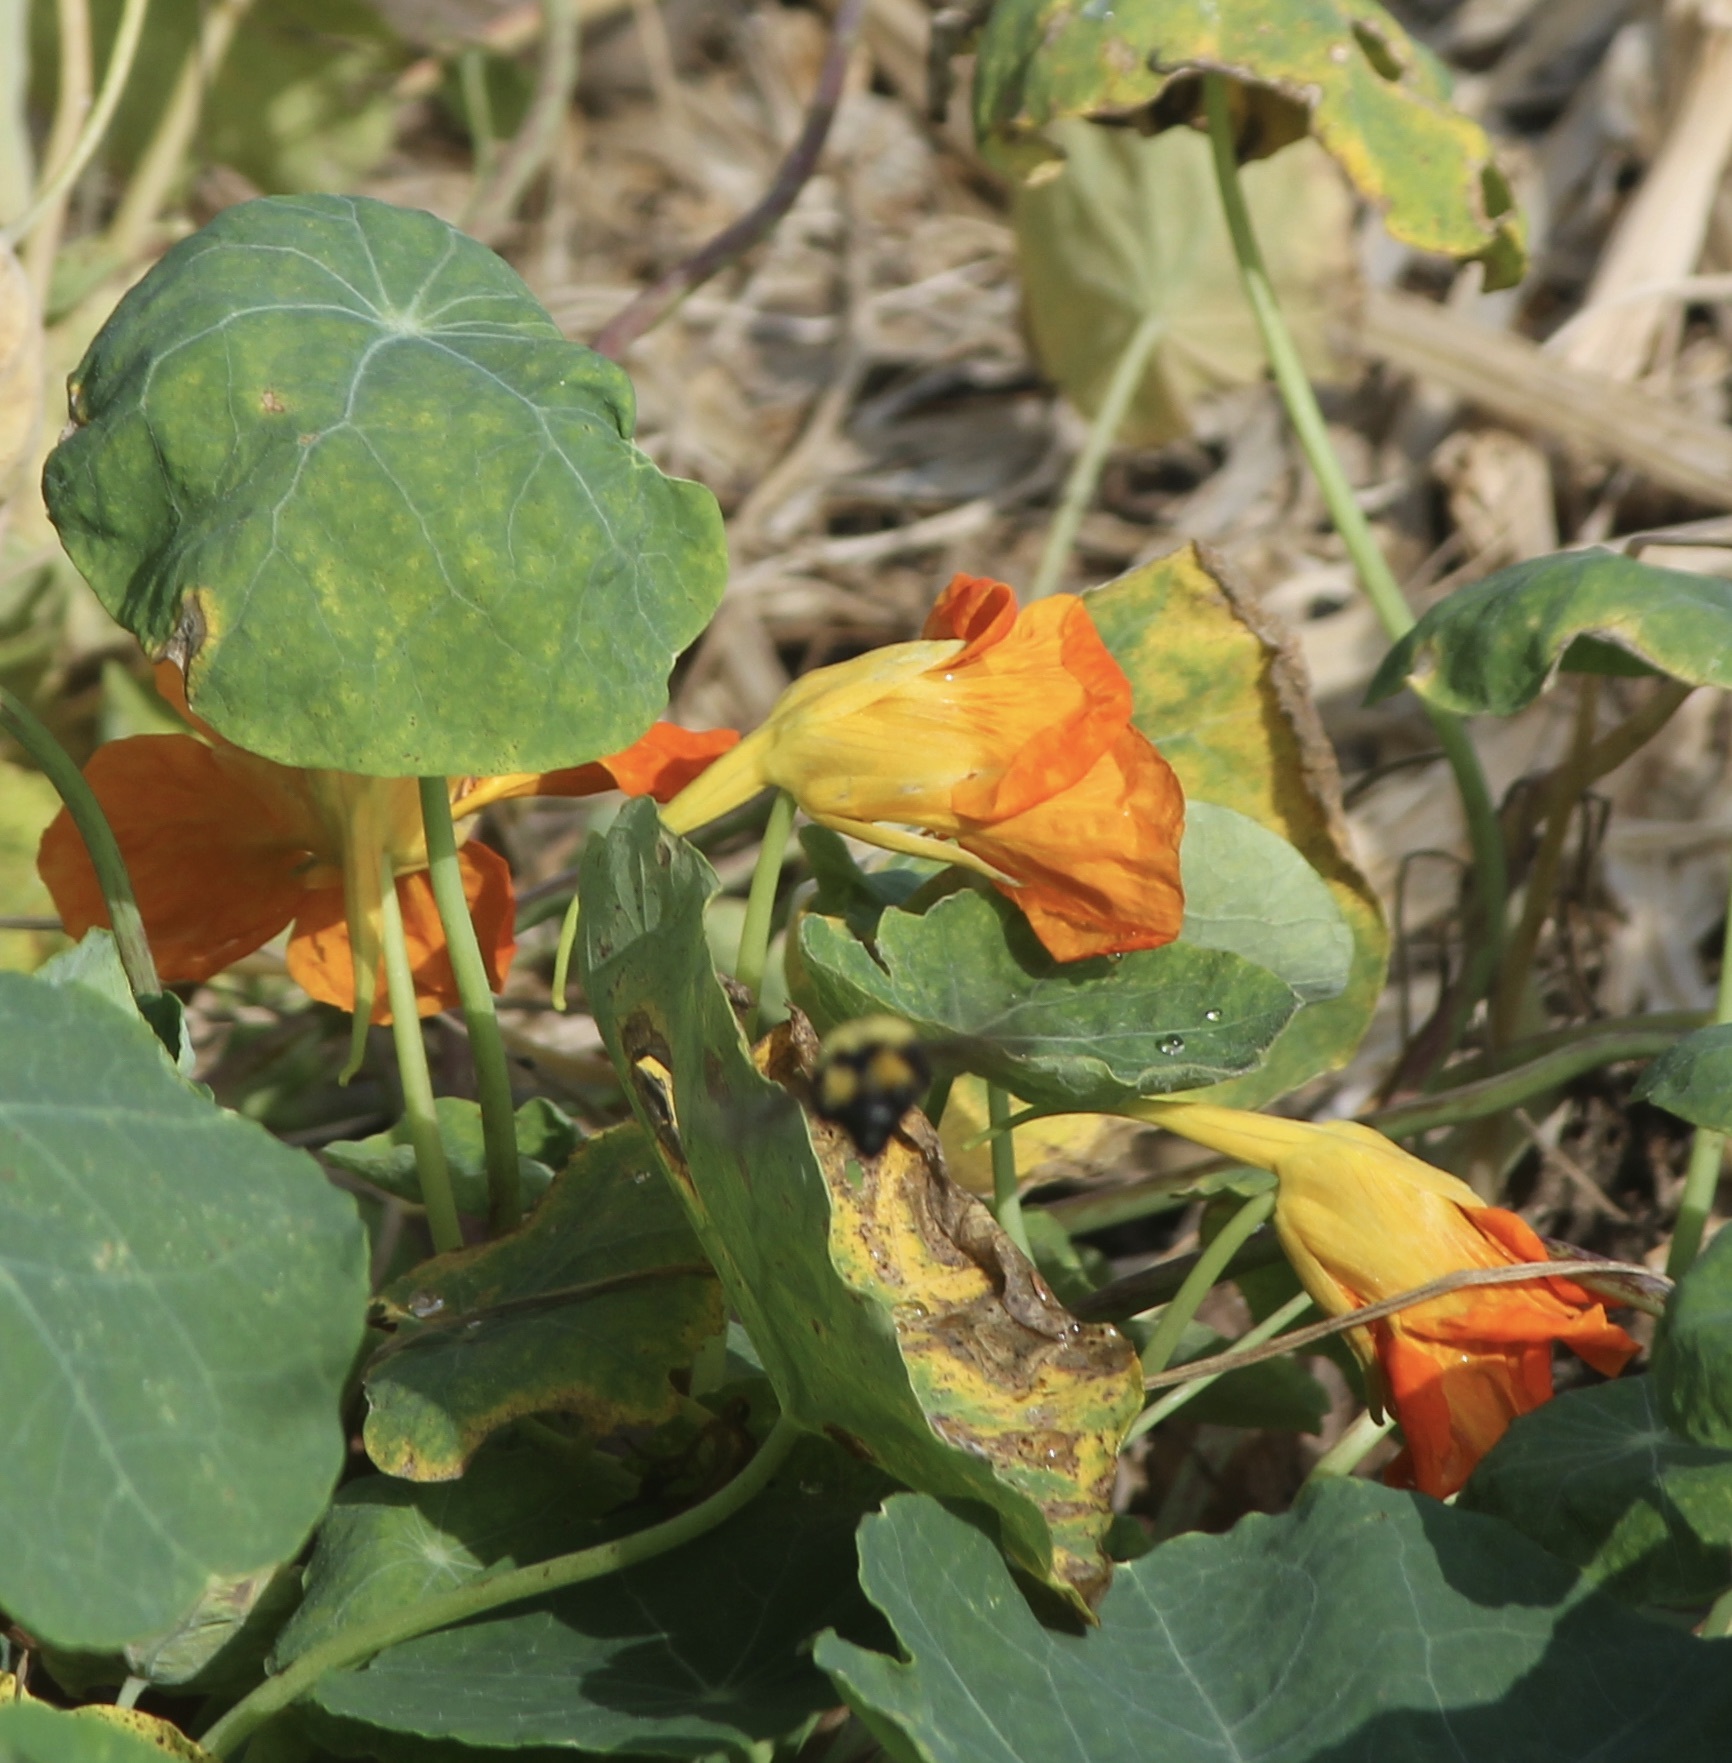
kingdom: Animalia
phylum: Arthropoda
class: Insecta
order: Hymenoptera
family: Apidae
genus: Bombus
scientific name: Bombus sonorus
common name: Sonoran bumble bee
